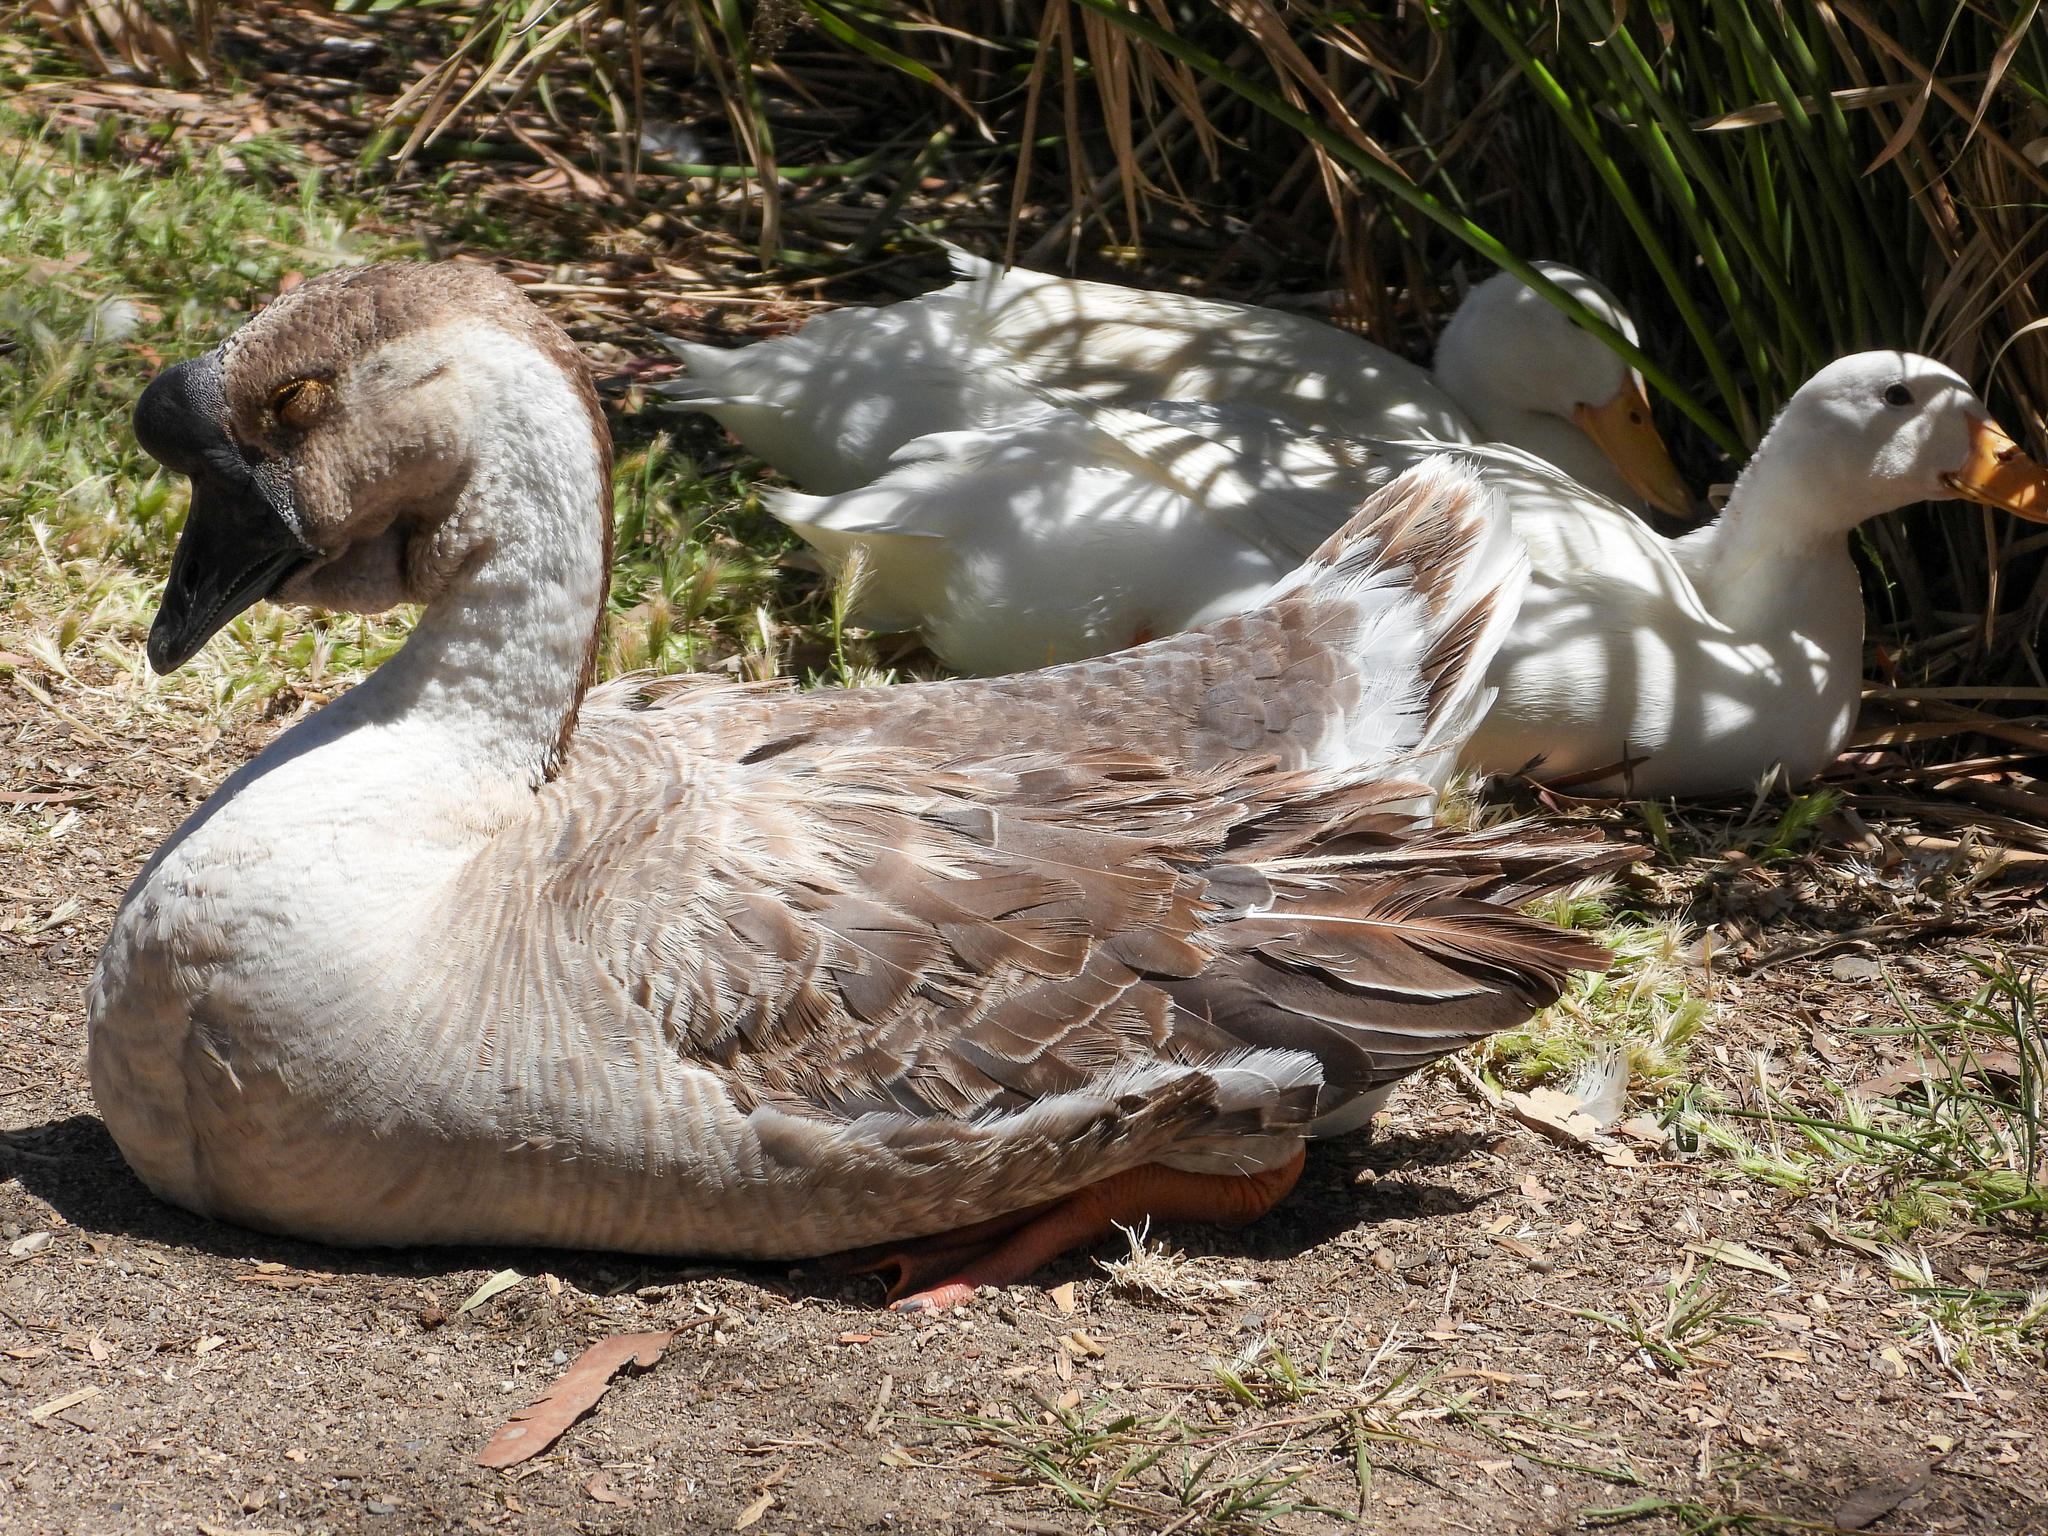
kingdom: Animalia
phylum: Chordata
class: Aves
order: Anseriformes
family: Anatidae
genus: Anser
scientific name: Anser cygnoides
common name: Swan goose
